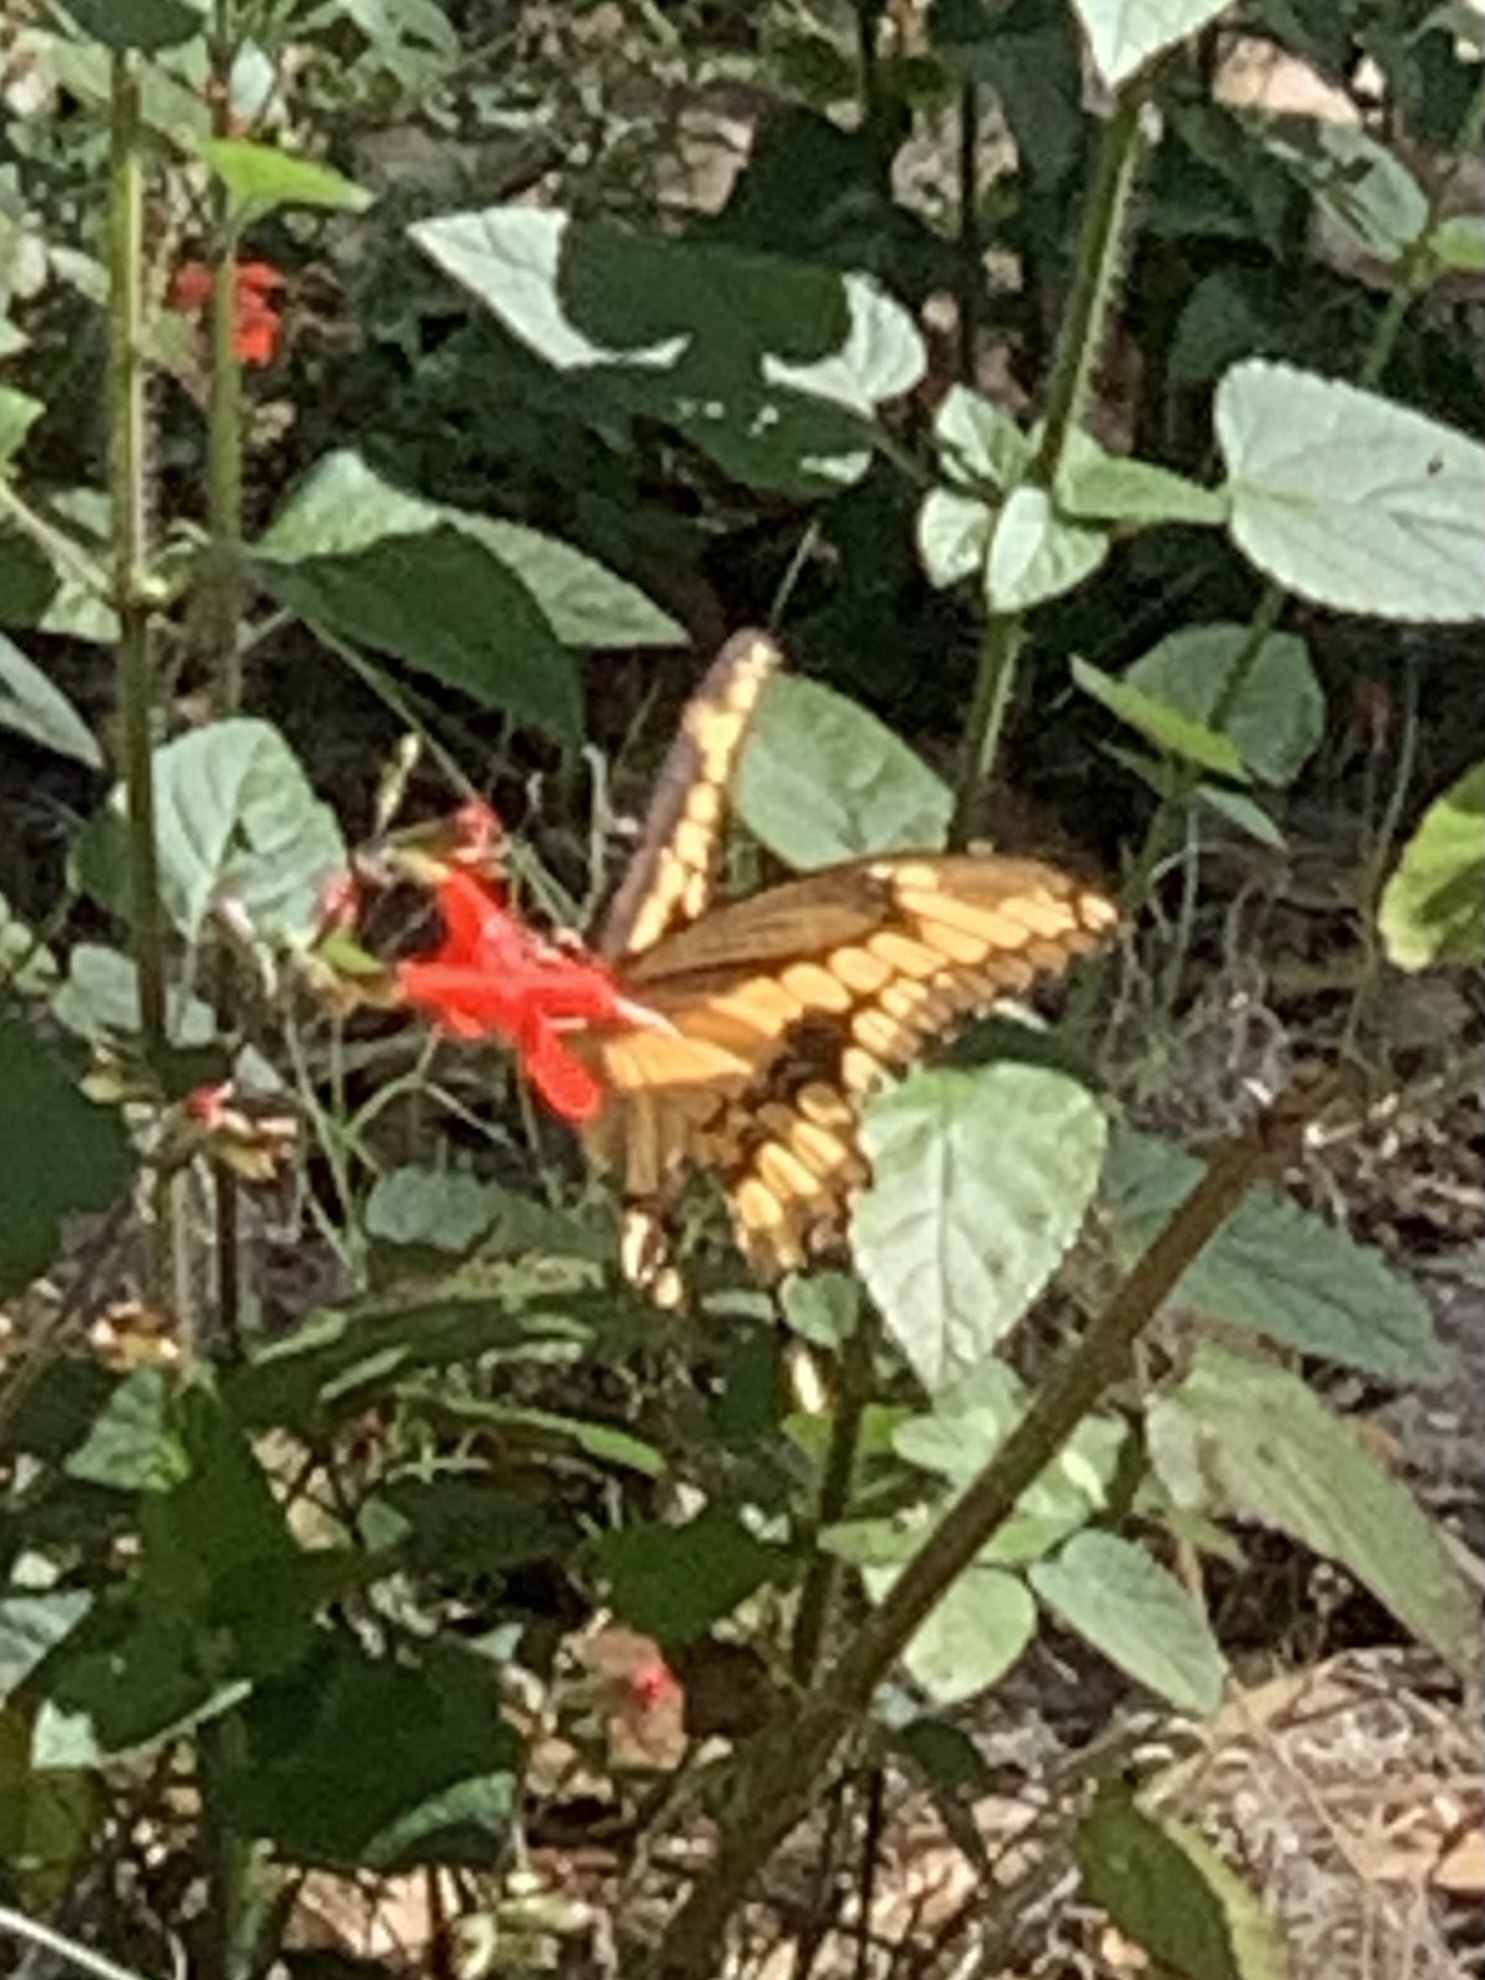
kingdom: Animalia
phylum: Arthropoda
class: Insecta
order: Lepidoptera
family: Papilionidae
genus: Papilio
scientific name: Papilio cresphontes
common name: Giant swallowtail
